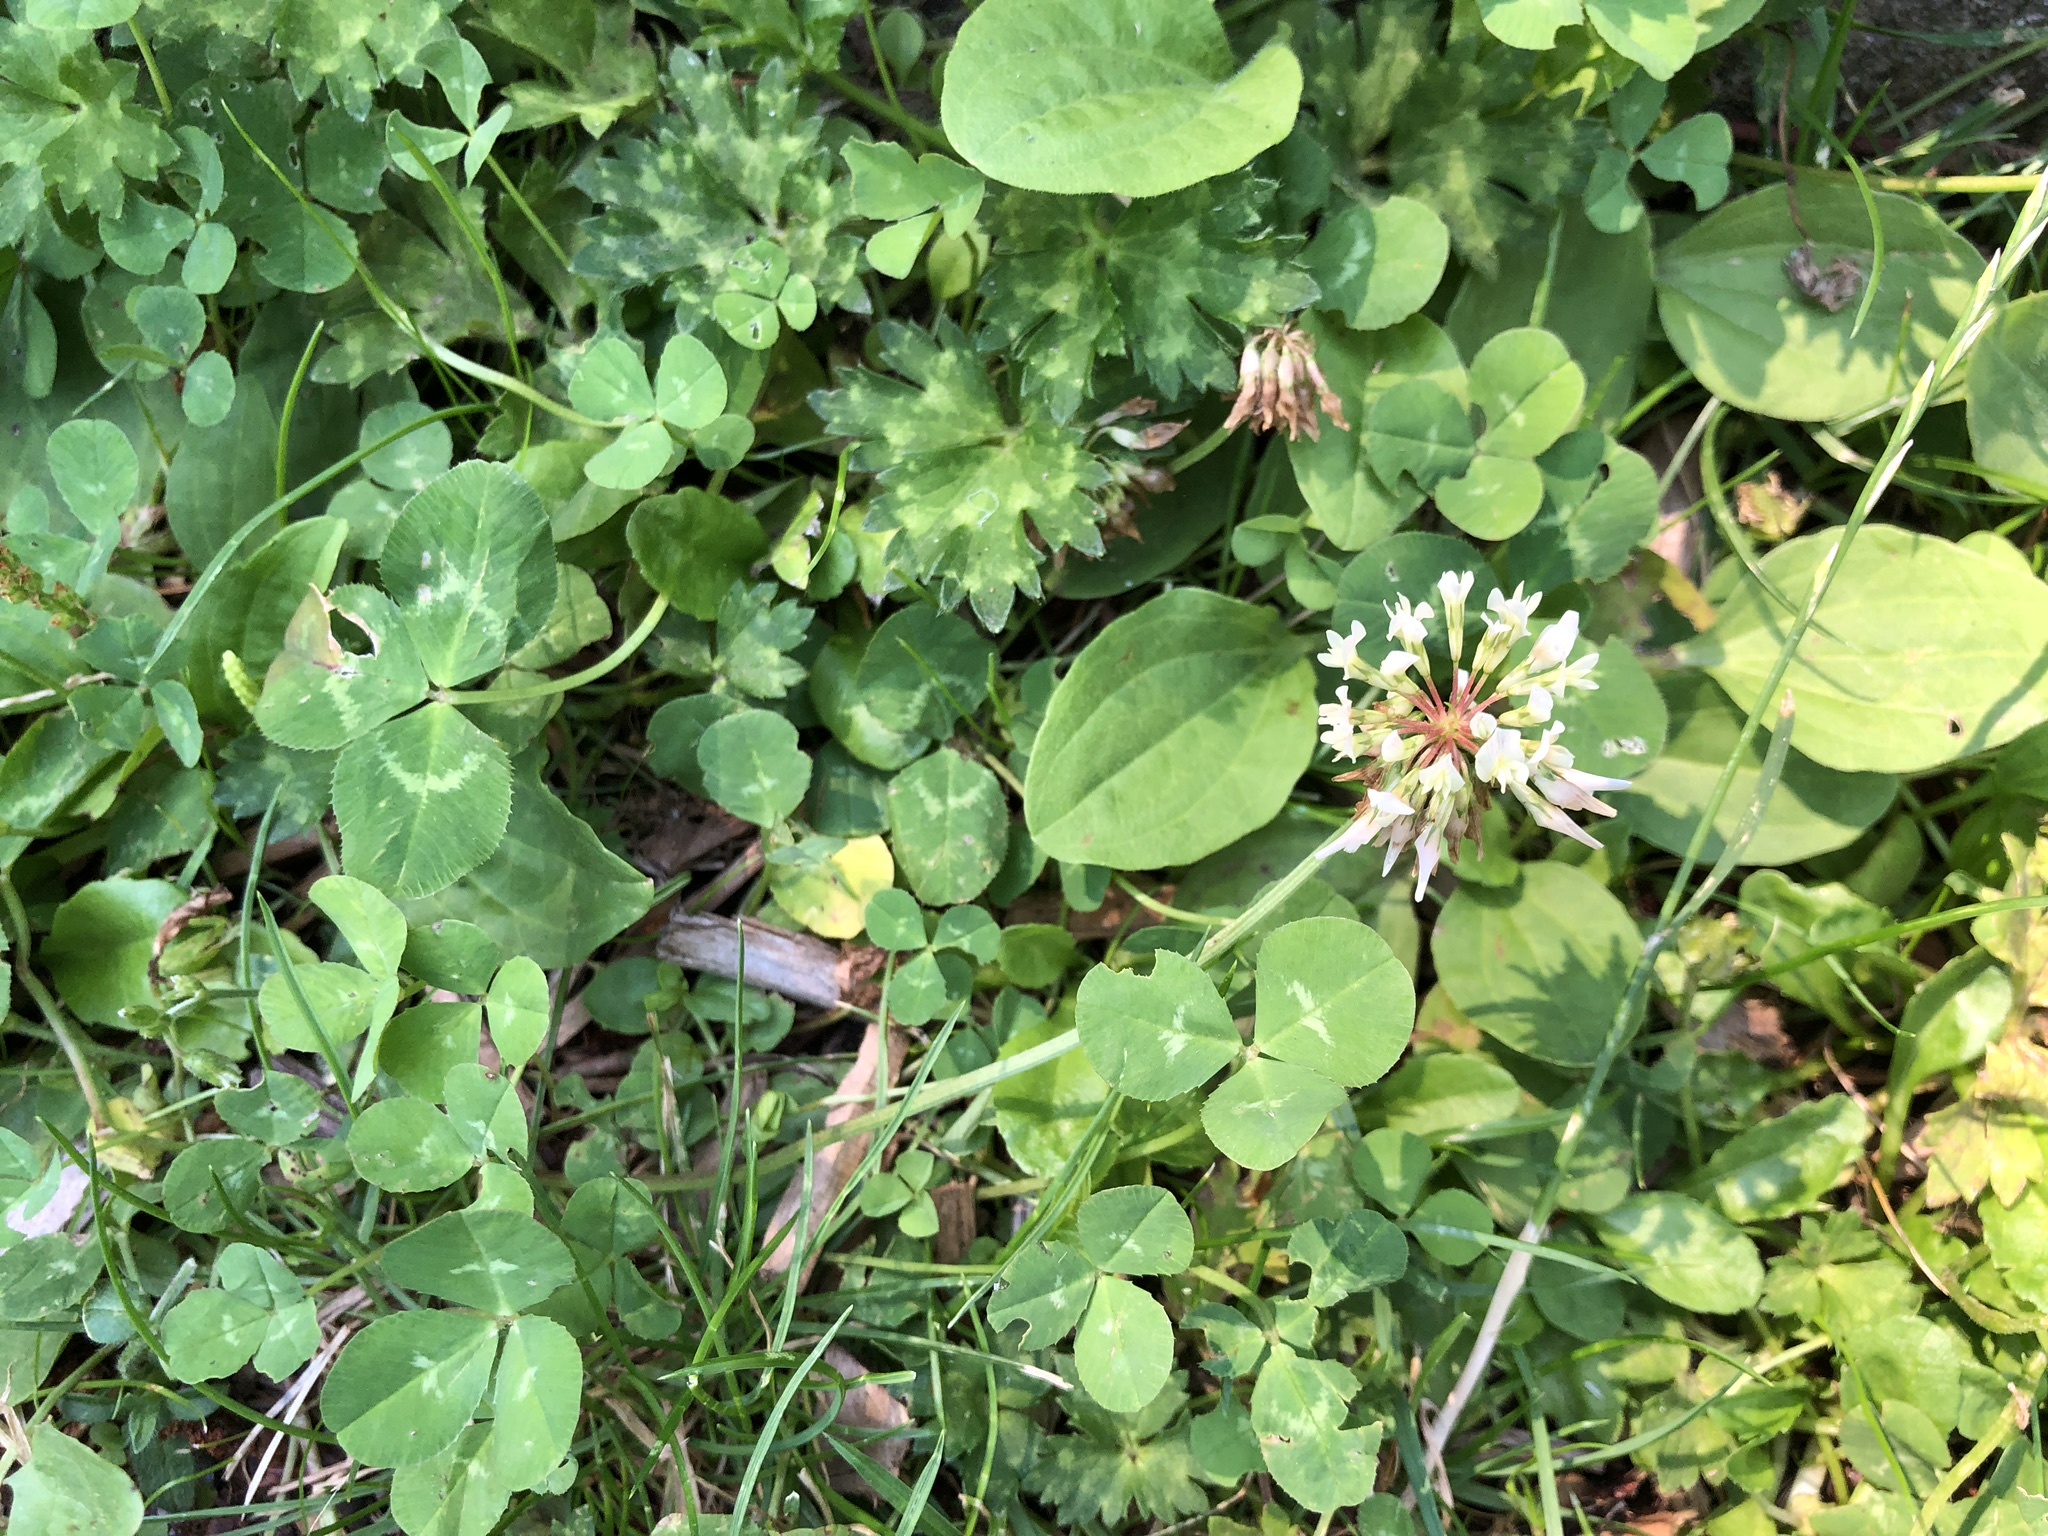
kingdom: Plantae
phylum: Tracheophyta
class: Magnoliopsida
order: Fabales
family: Fabaceae
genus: Trifolium
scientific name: Trifolium repens
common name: White clover
